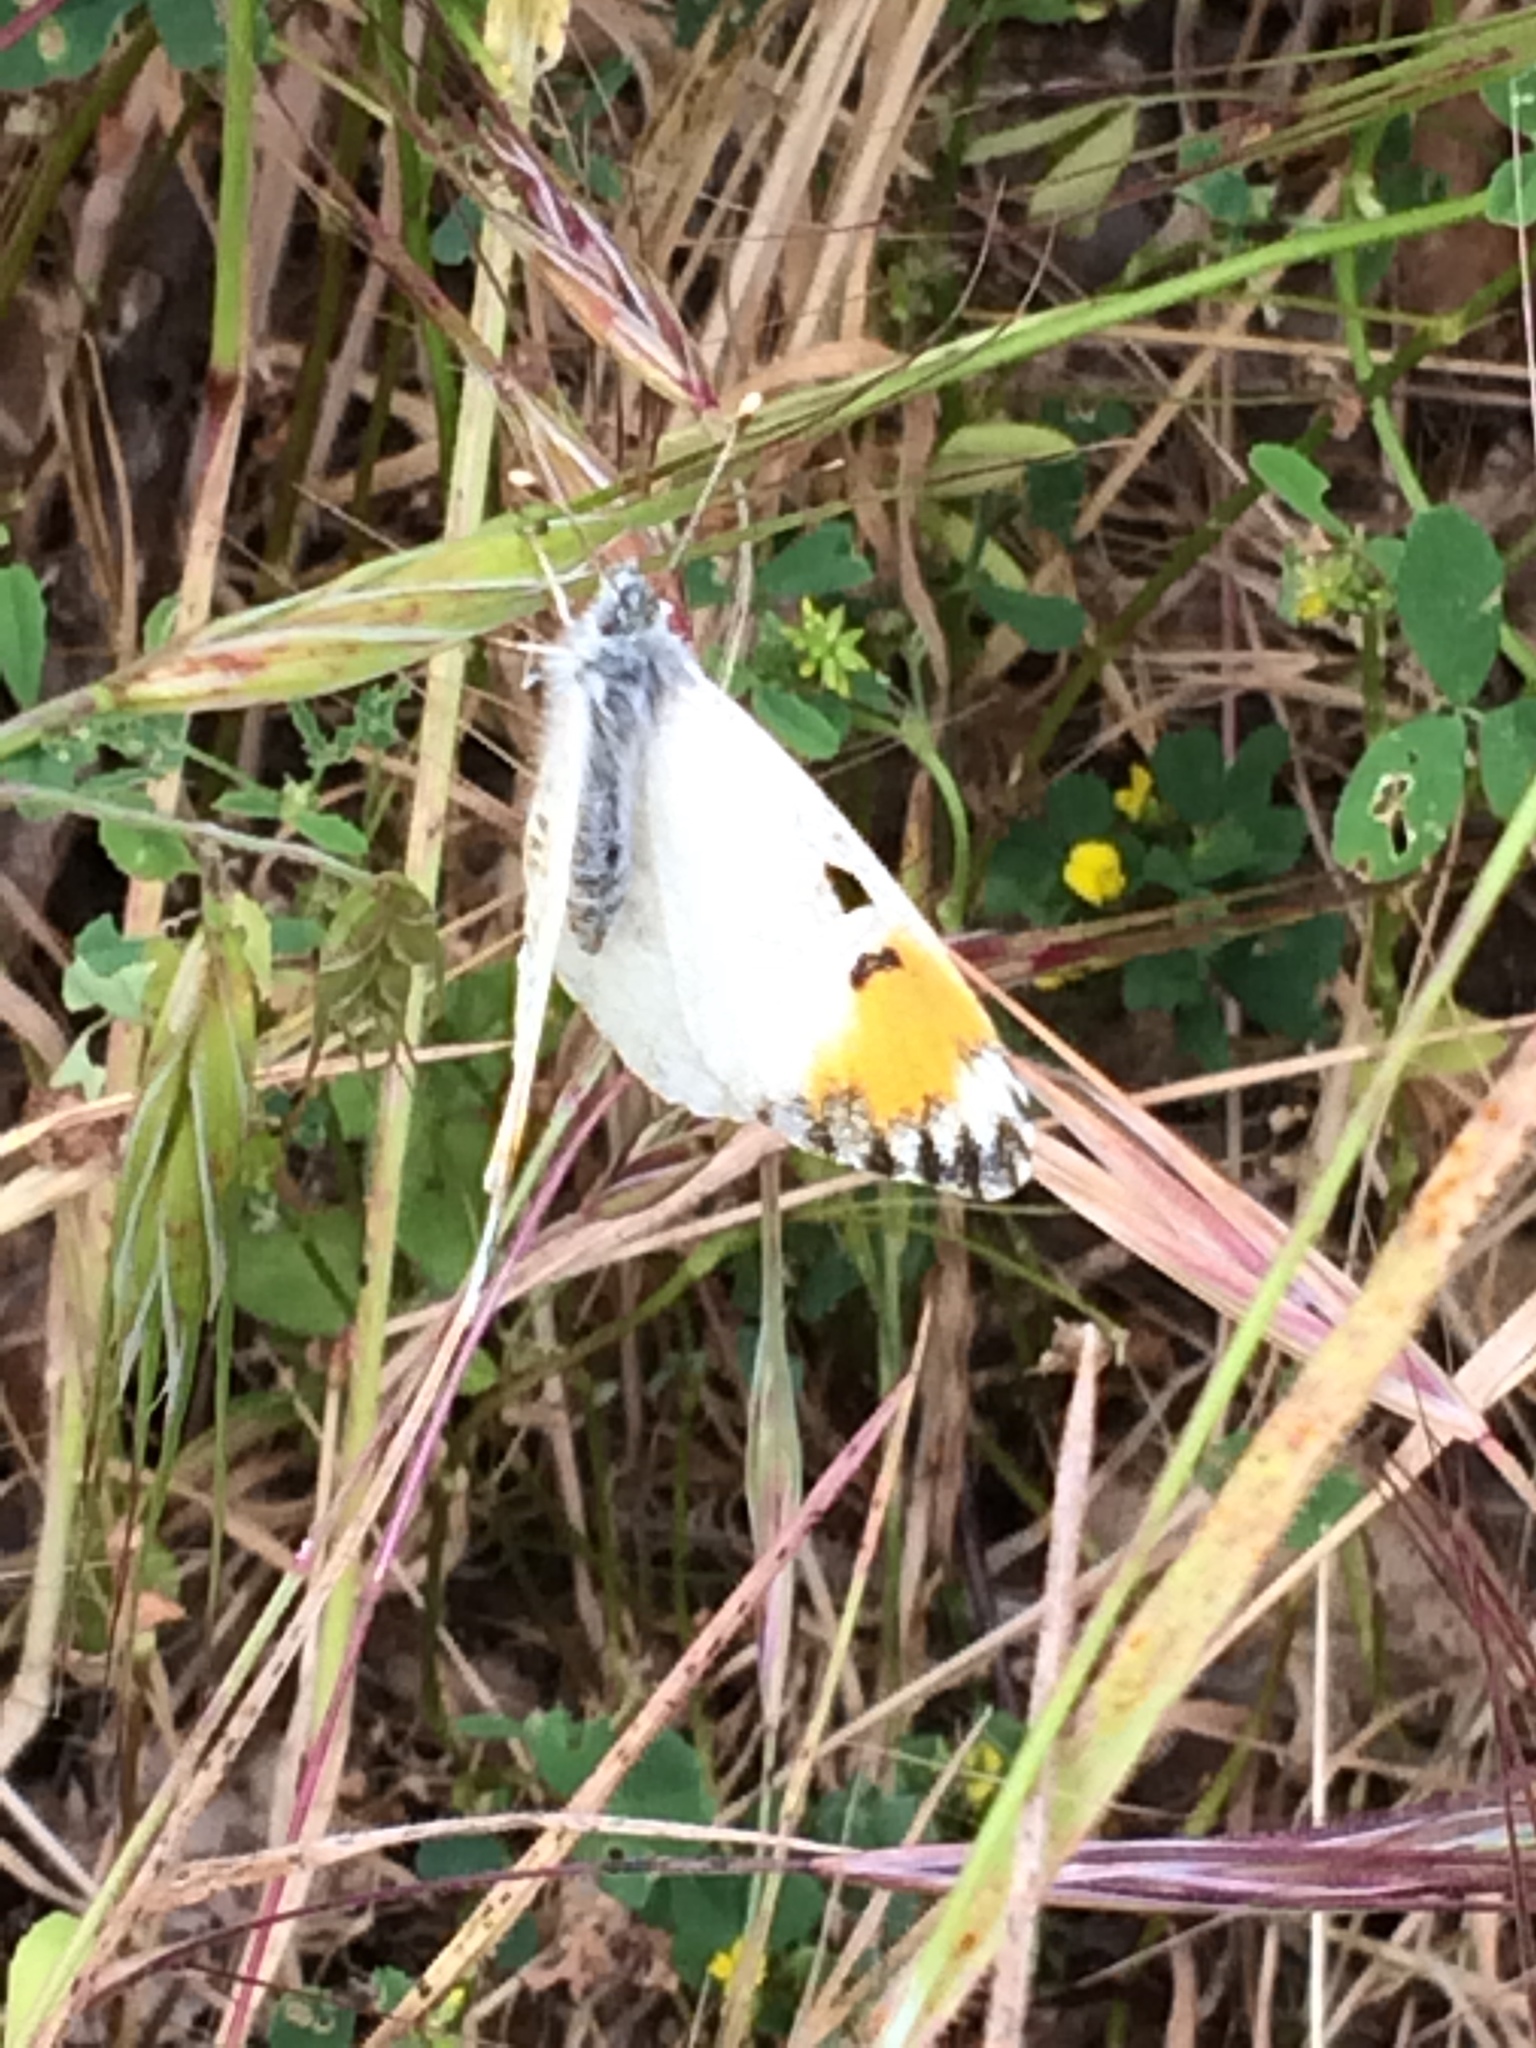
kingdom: Animalia
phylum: Arthropoda
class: Insecta
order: Lepidoptera
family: Pieridae
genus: Anthocharis
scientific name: Anthocharis sara
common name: Sara's orangetip
